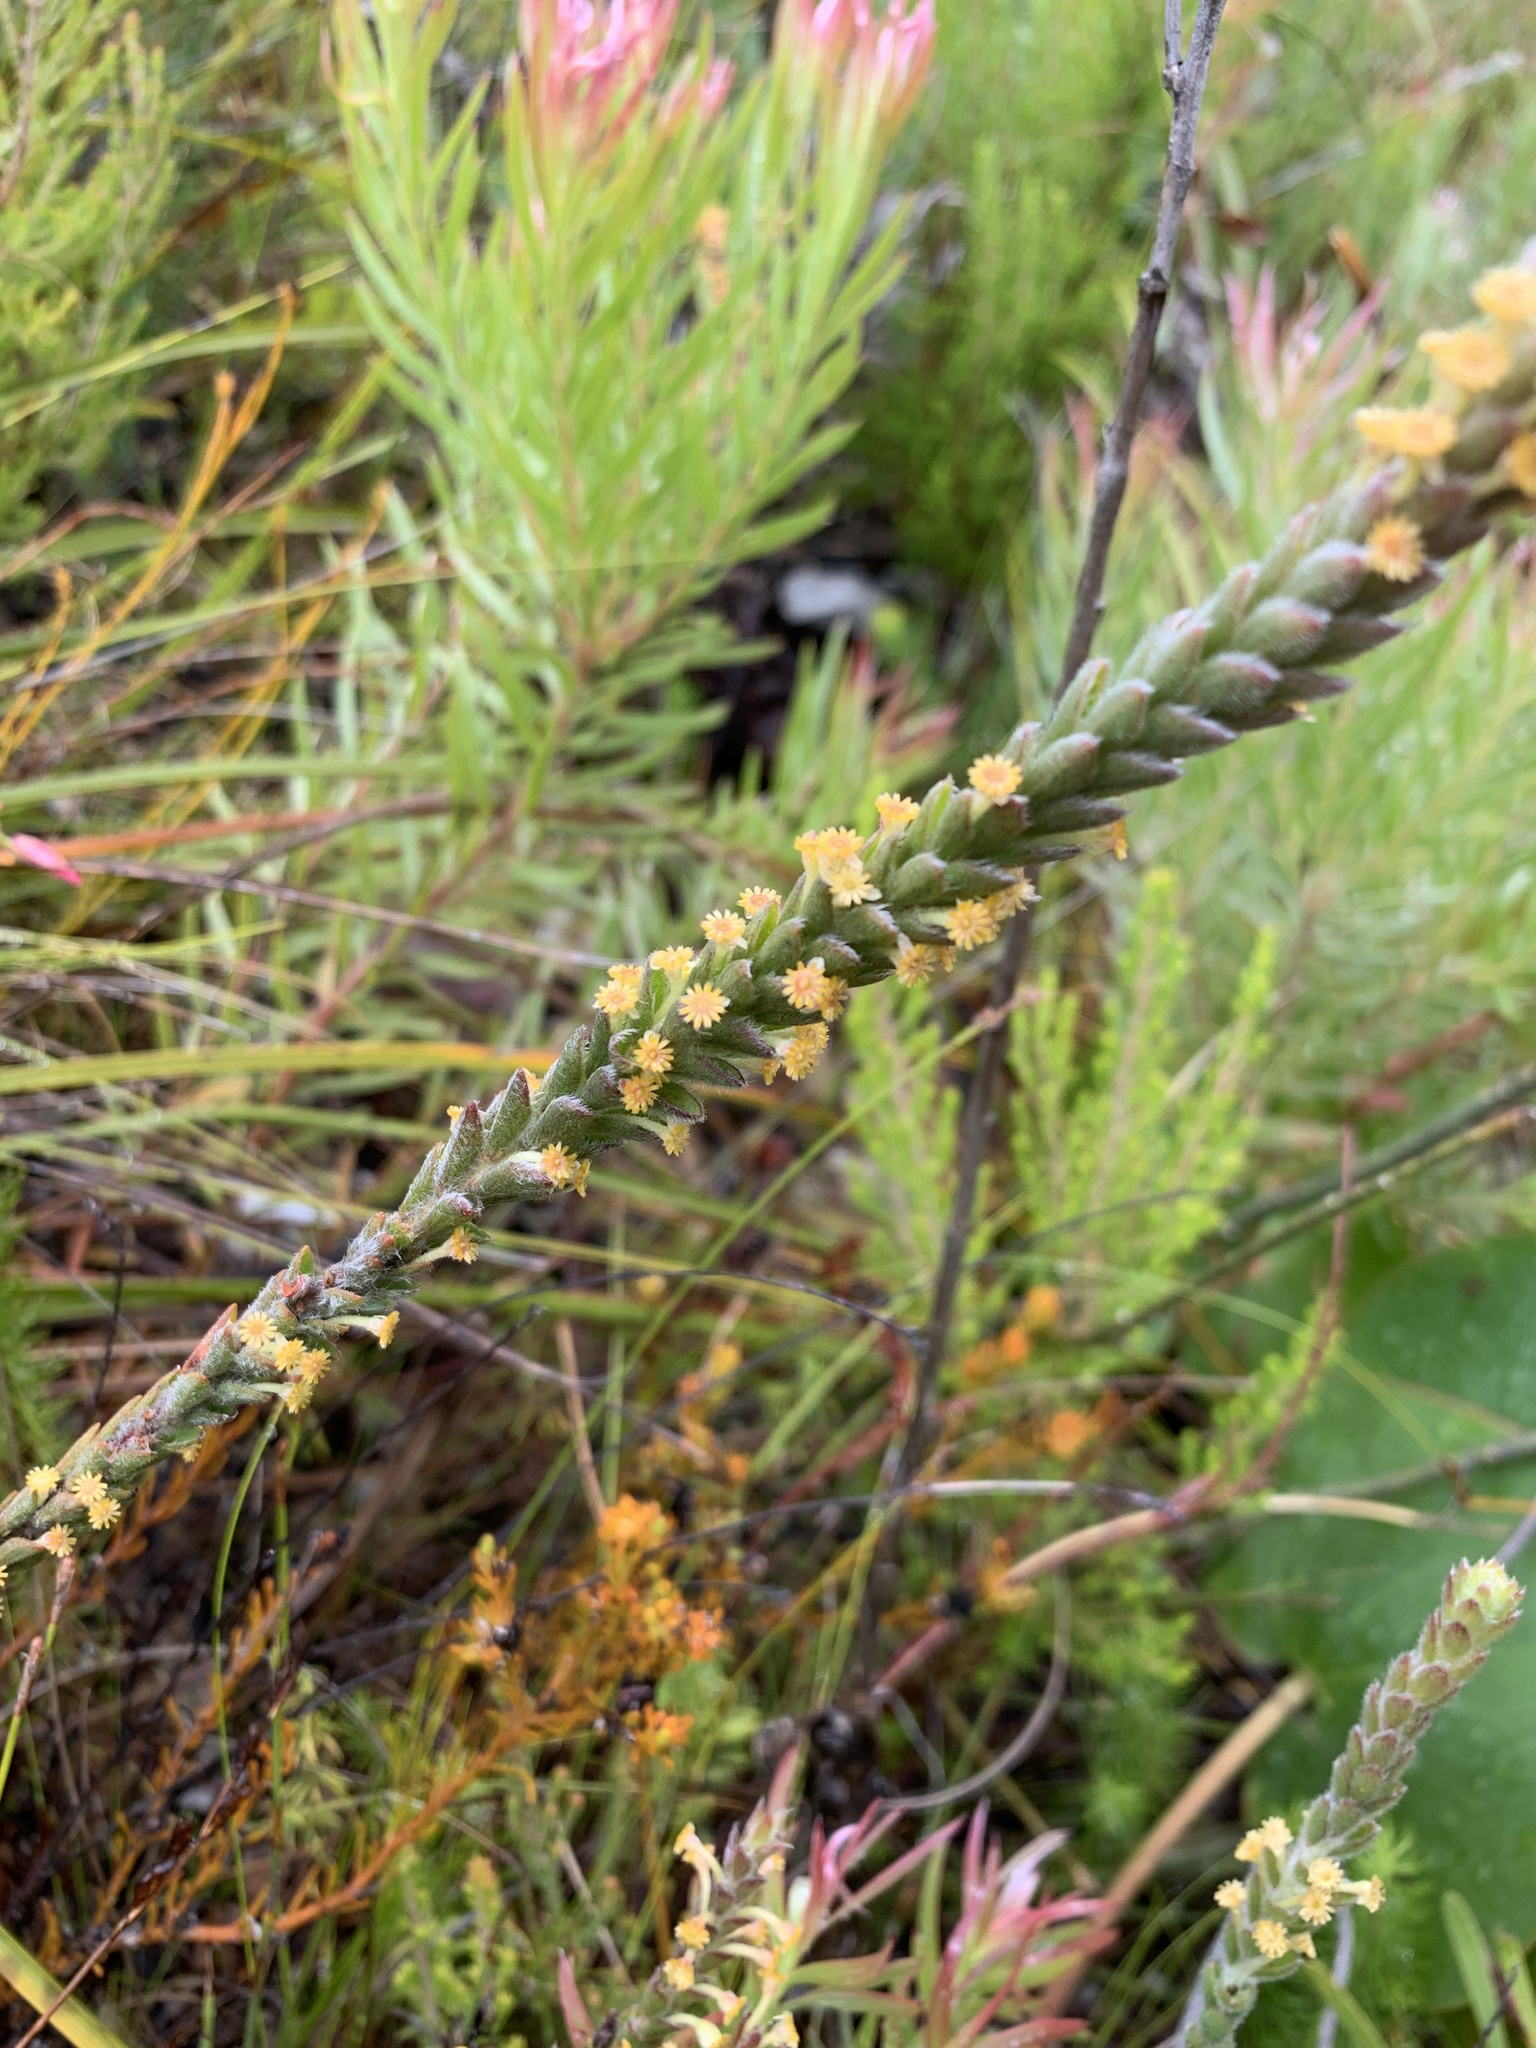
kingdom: Plantae
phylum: Tracheophyta
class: Magnoliopsida
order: Malvales
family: Thymelaeaceae
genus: Struthiola
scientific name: Struthiola tomentosa
